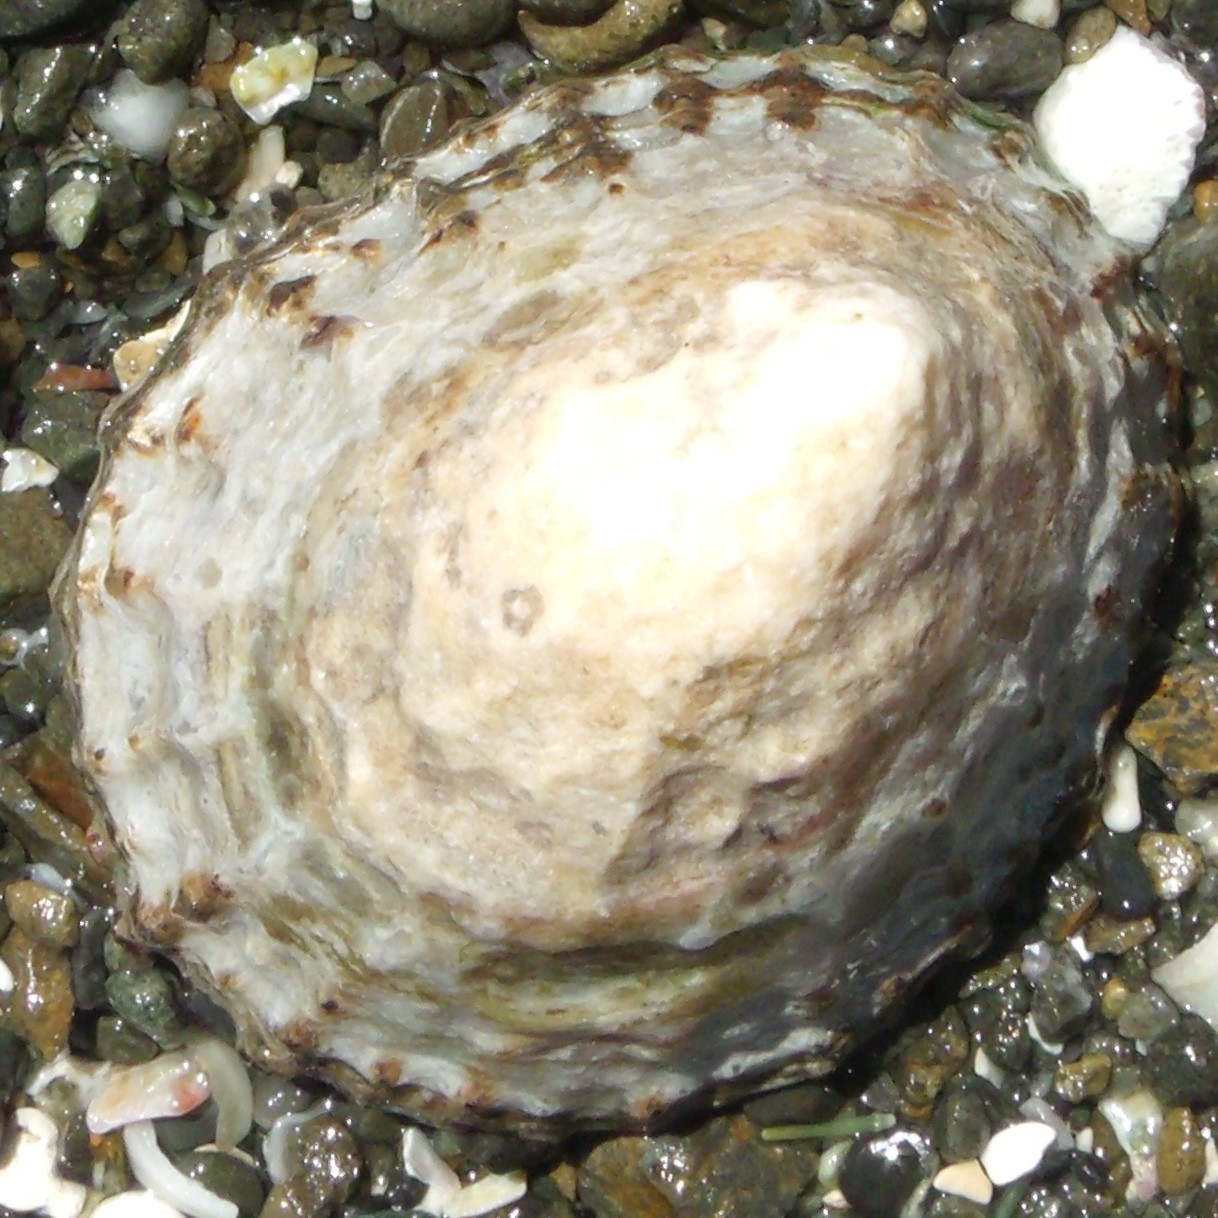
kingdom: Animalia
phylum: Mollusca
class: Gastropoda
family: Nacellidae
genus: Cellana
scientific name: Cellana denticulata
